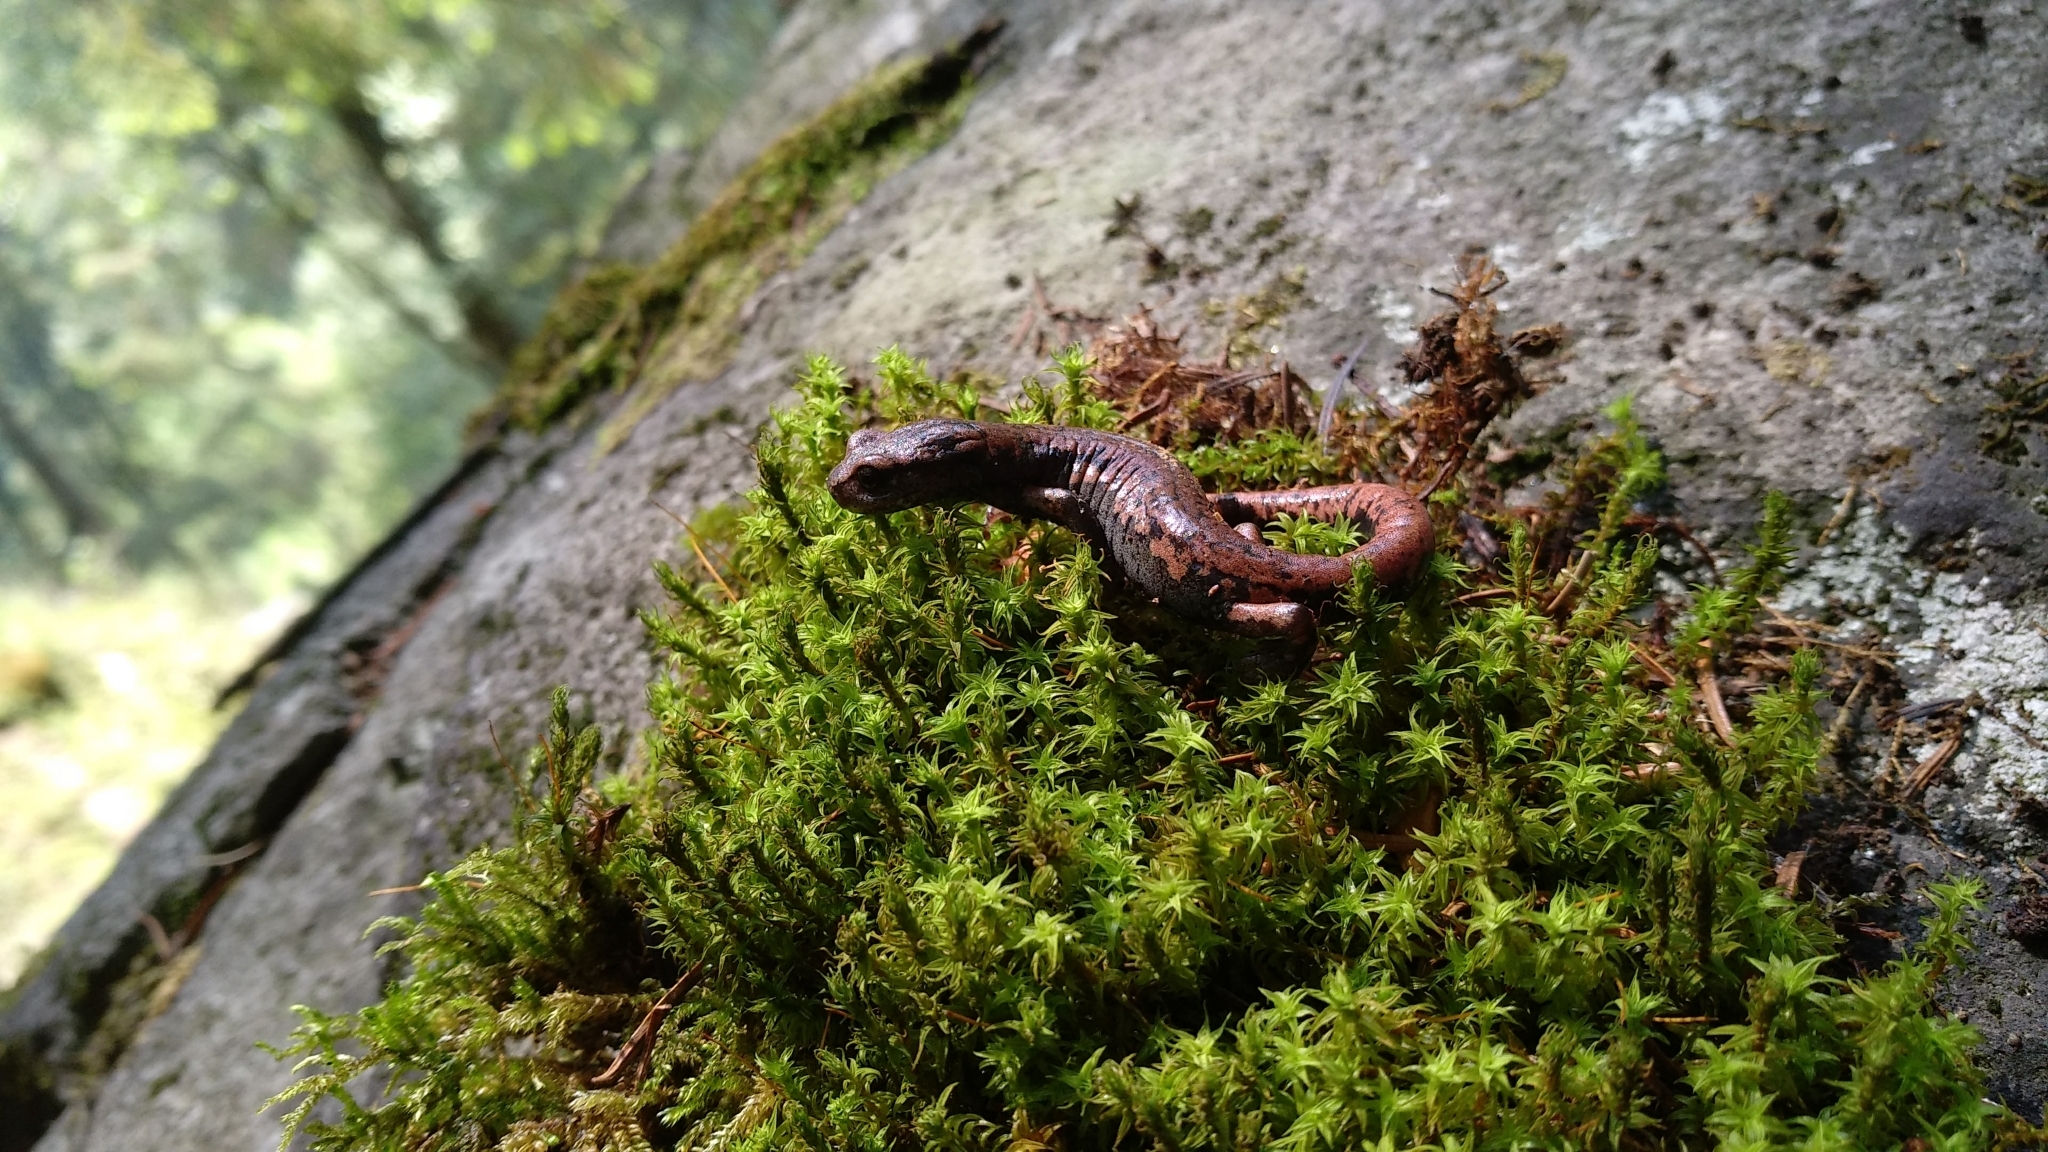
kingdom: Animalia
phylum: Chordata
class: Amphibia
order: Caudata
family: Plethodontidae
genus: Pseudoeurycea
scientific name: Pseudoeurycea leprosa
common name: Leprous false brook salamander
